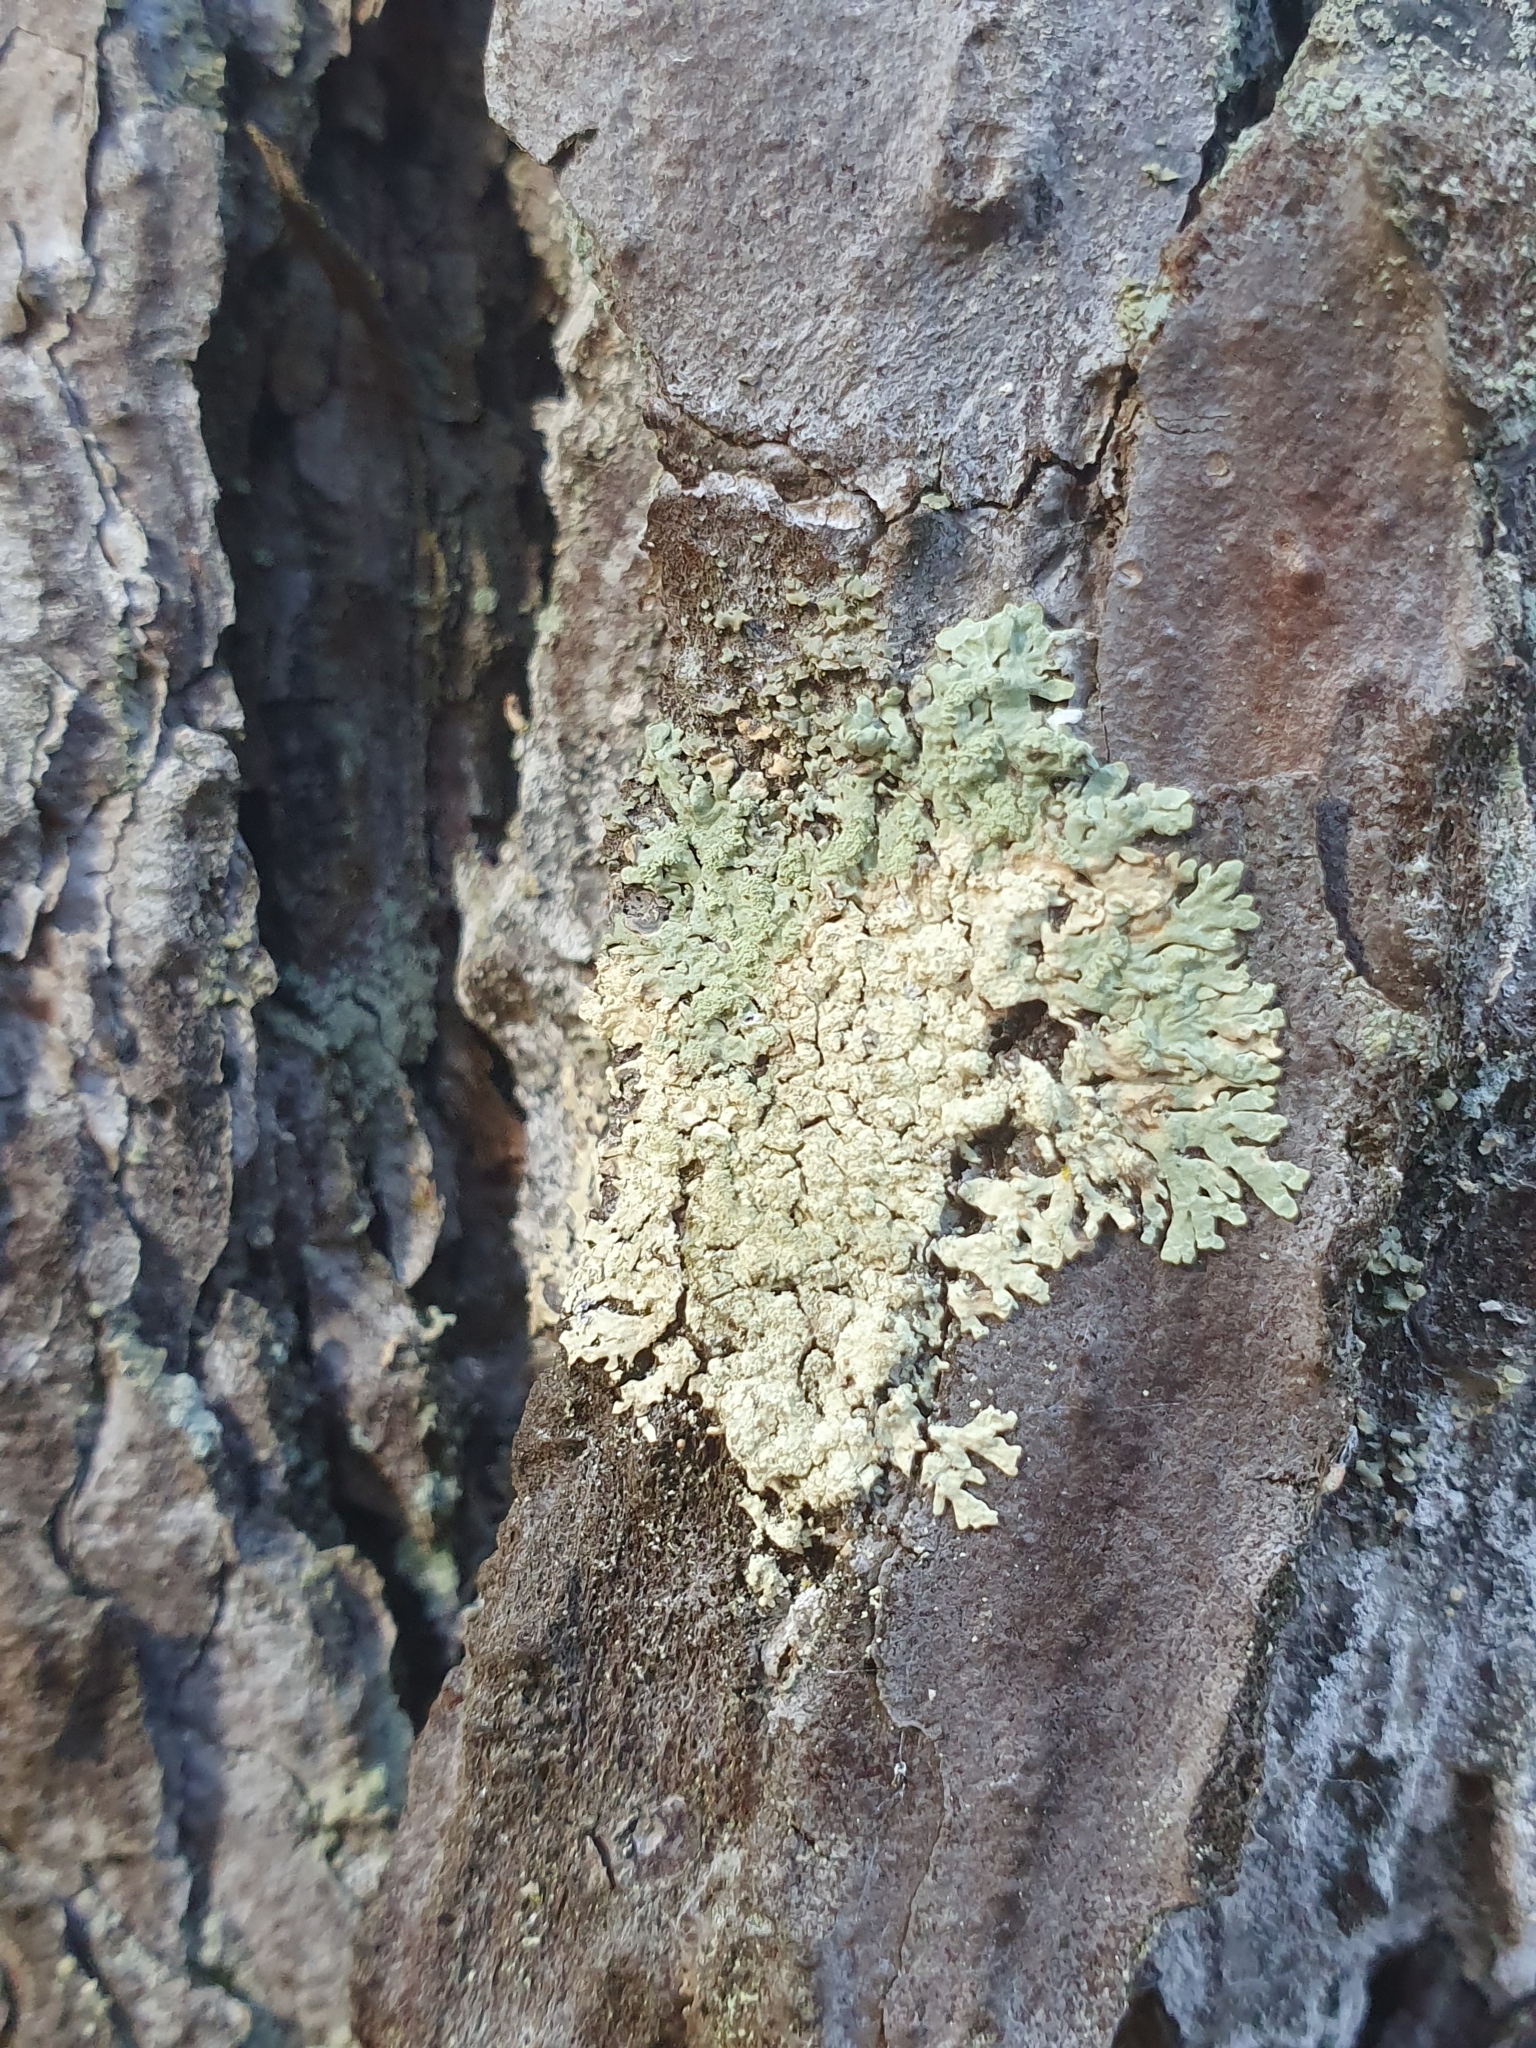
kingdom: Fungi
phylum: Ascomycota
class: Lecanoromycetes
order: Lecanorales
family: Parmeliaceae
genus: Parmeliopsis
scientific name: Parmeliopsis ambigua
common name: Green starburst lichen
